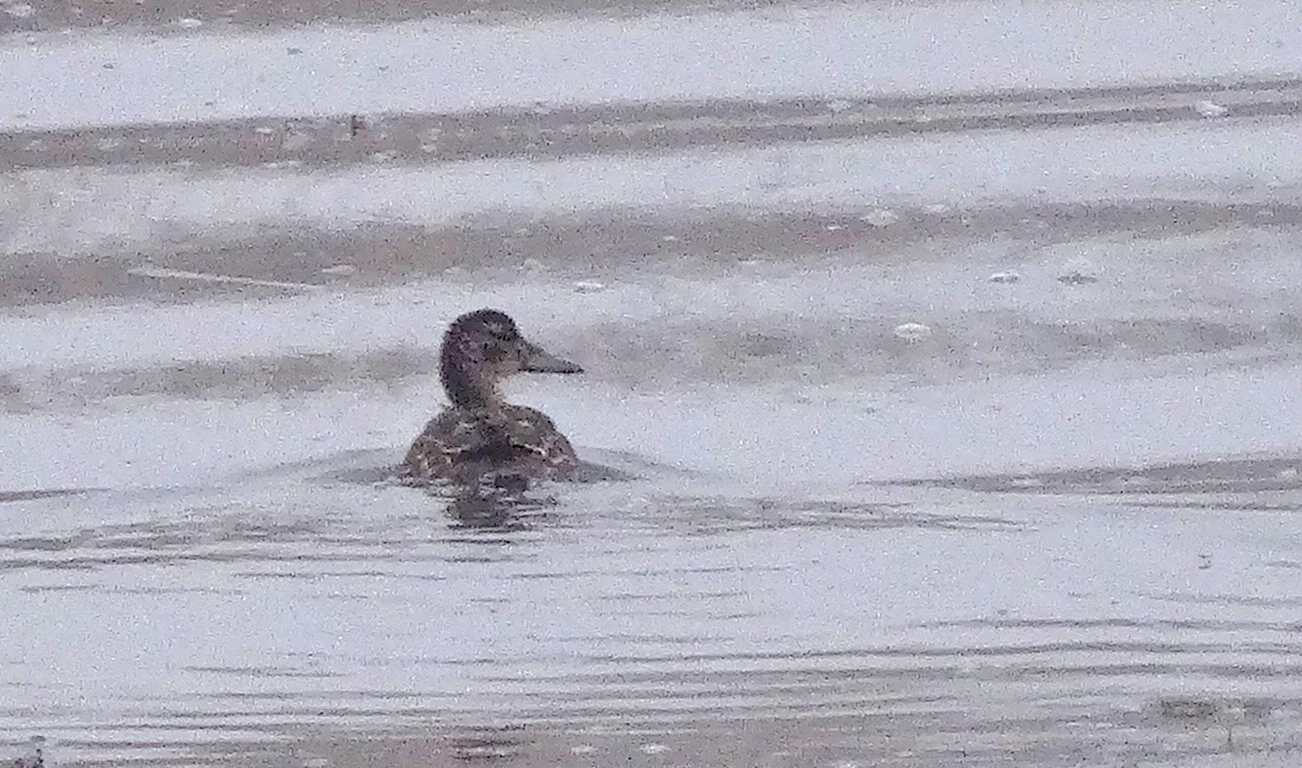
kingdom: Animalia
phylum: Chordata
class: Aves
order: Anseriformes
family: Anatidae
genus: Spatula
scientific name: Spatula querquedula
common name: Garganey
